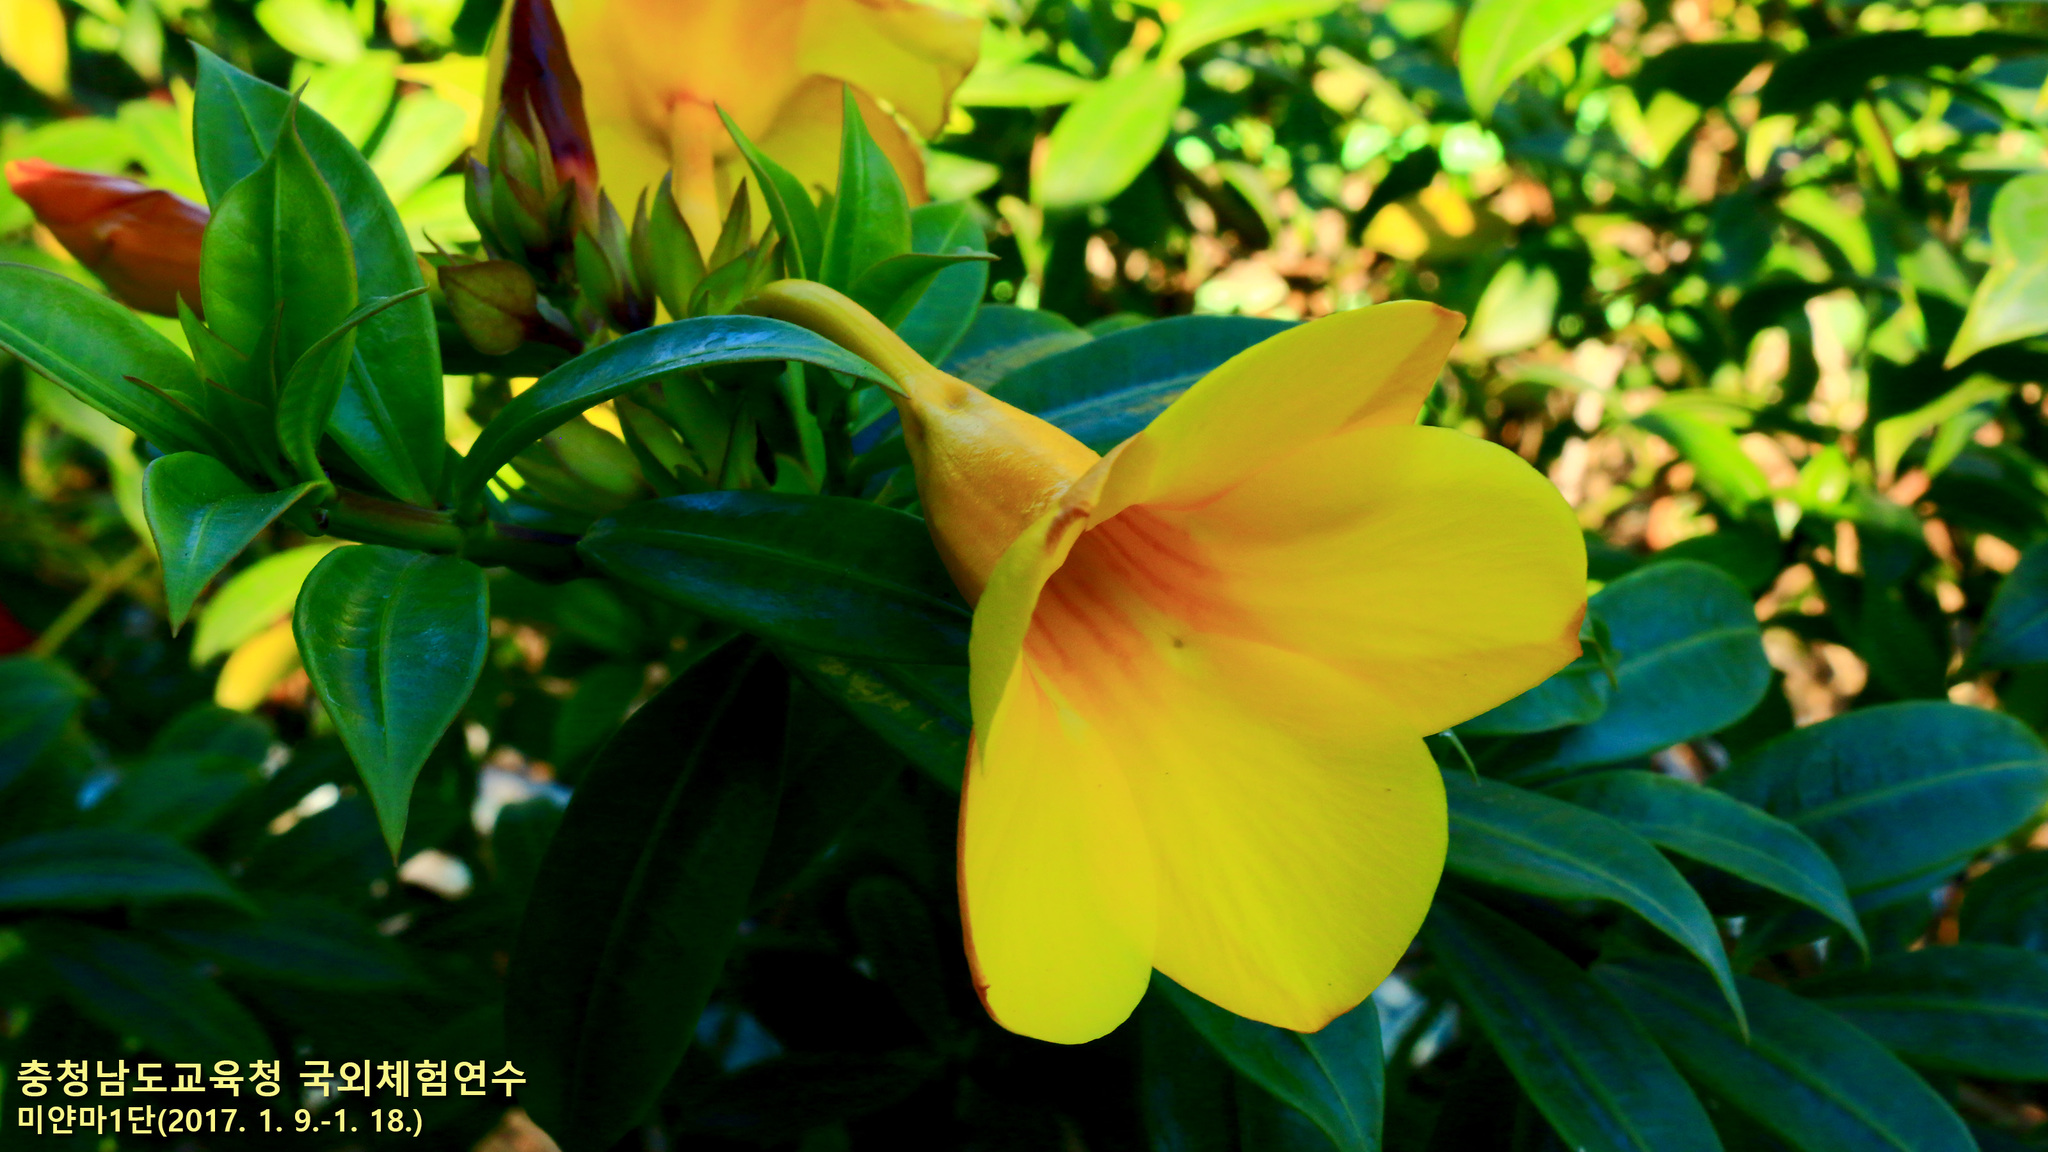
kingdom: Plantae
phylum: Tracheophyta
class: Magnoliopsida
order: Gentianales
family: Apocynaceae
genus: Allamanda
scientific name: Allamanda cathartica
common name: Golden trumpet
